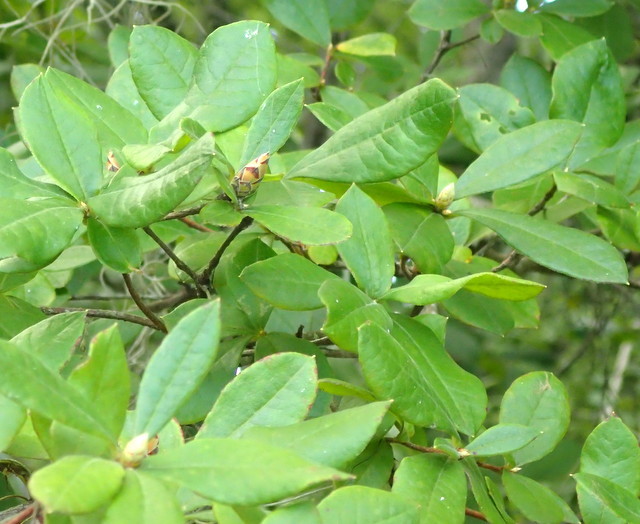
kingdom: Plantae
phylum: Tracheophyta
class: Magnoliopsida
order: Ericales
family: Ericaceae
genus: Rhododendron
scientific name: Rhododendron serrulatum
